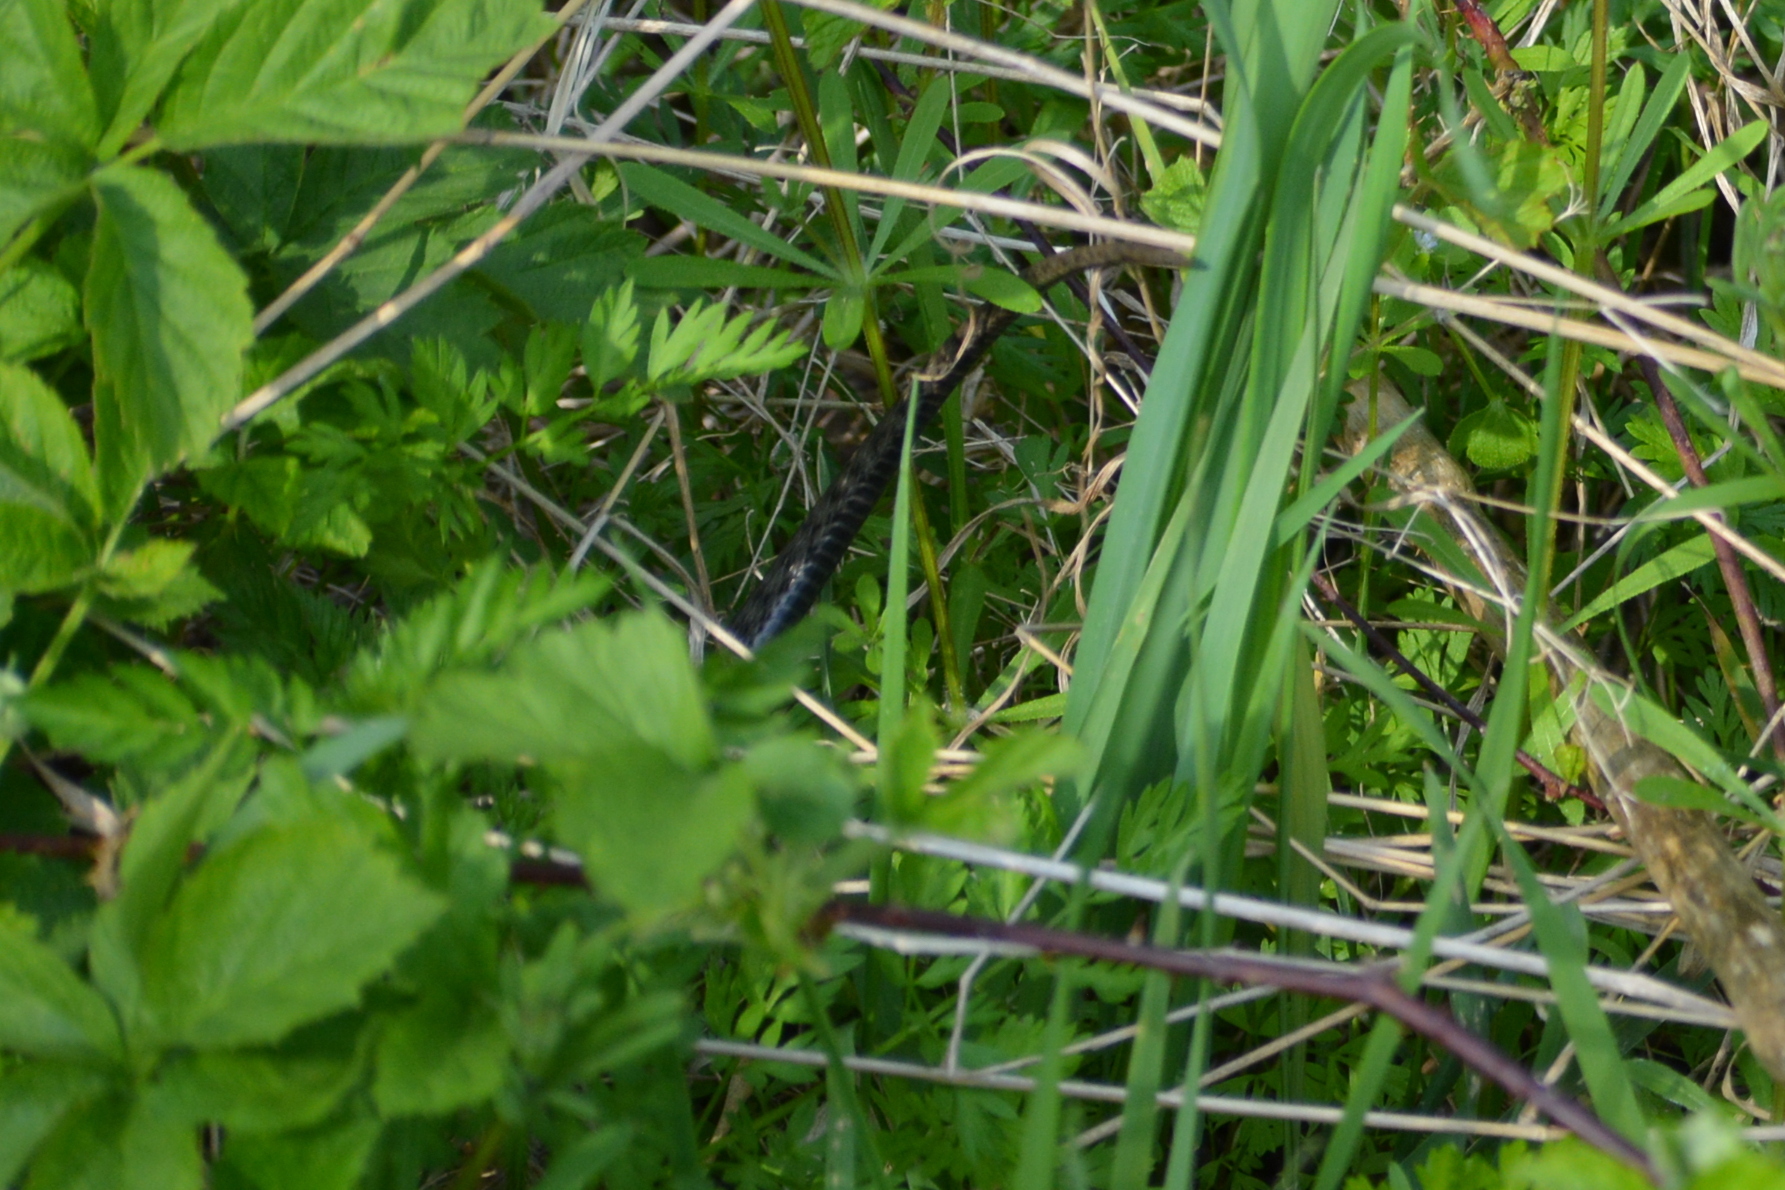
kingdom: Animalia
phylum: Chordata
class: Squamata
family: Colubridae
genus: Natrix
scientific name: Natrix tessellata
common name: Dice snake
